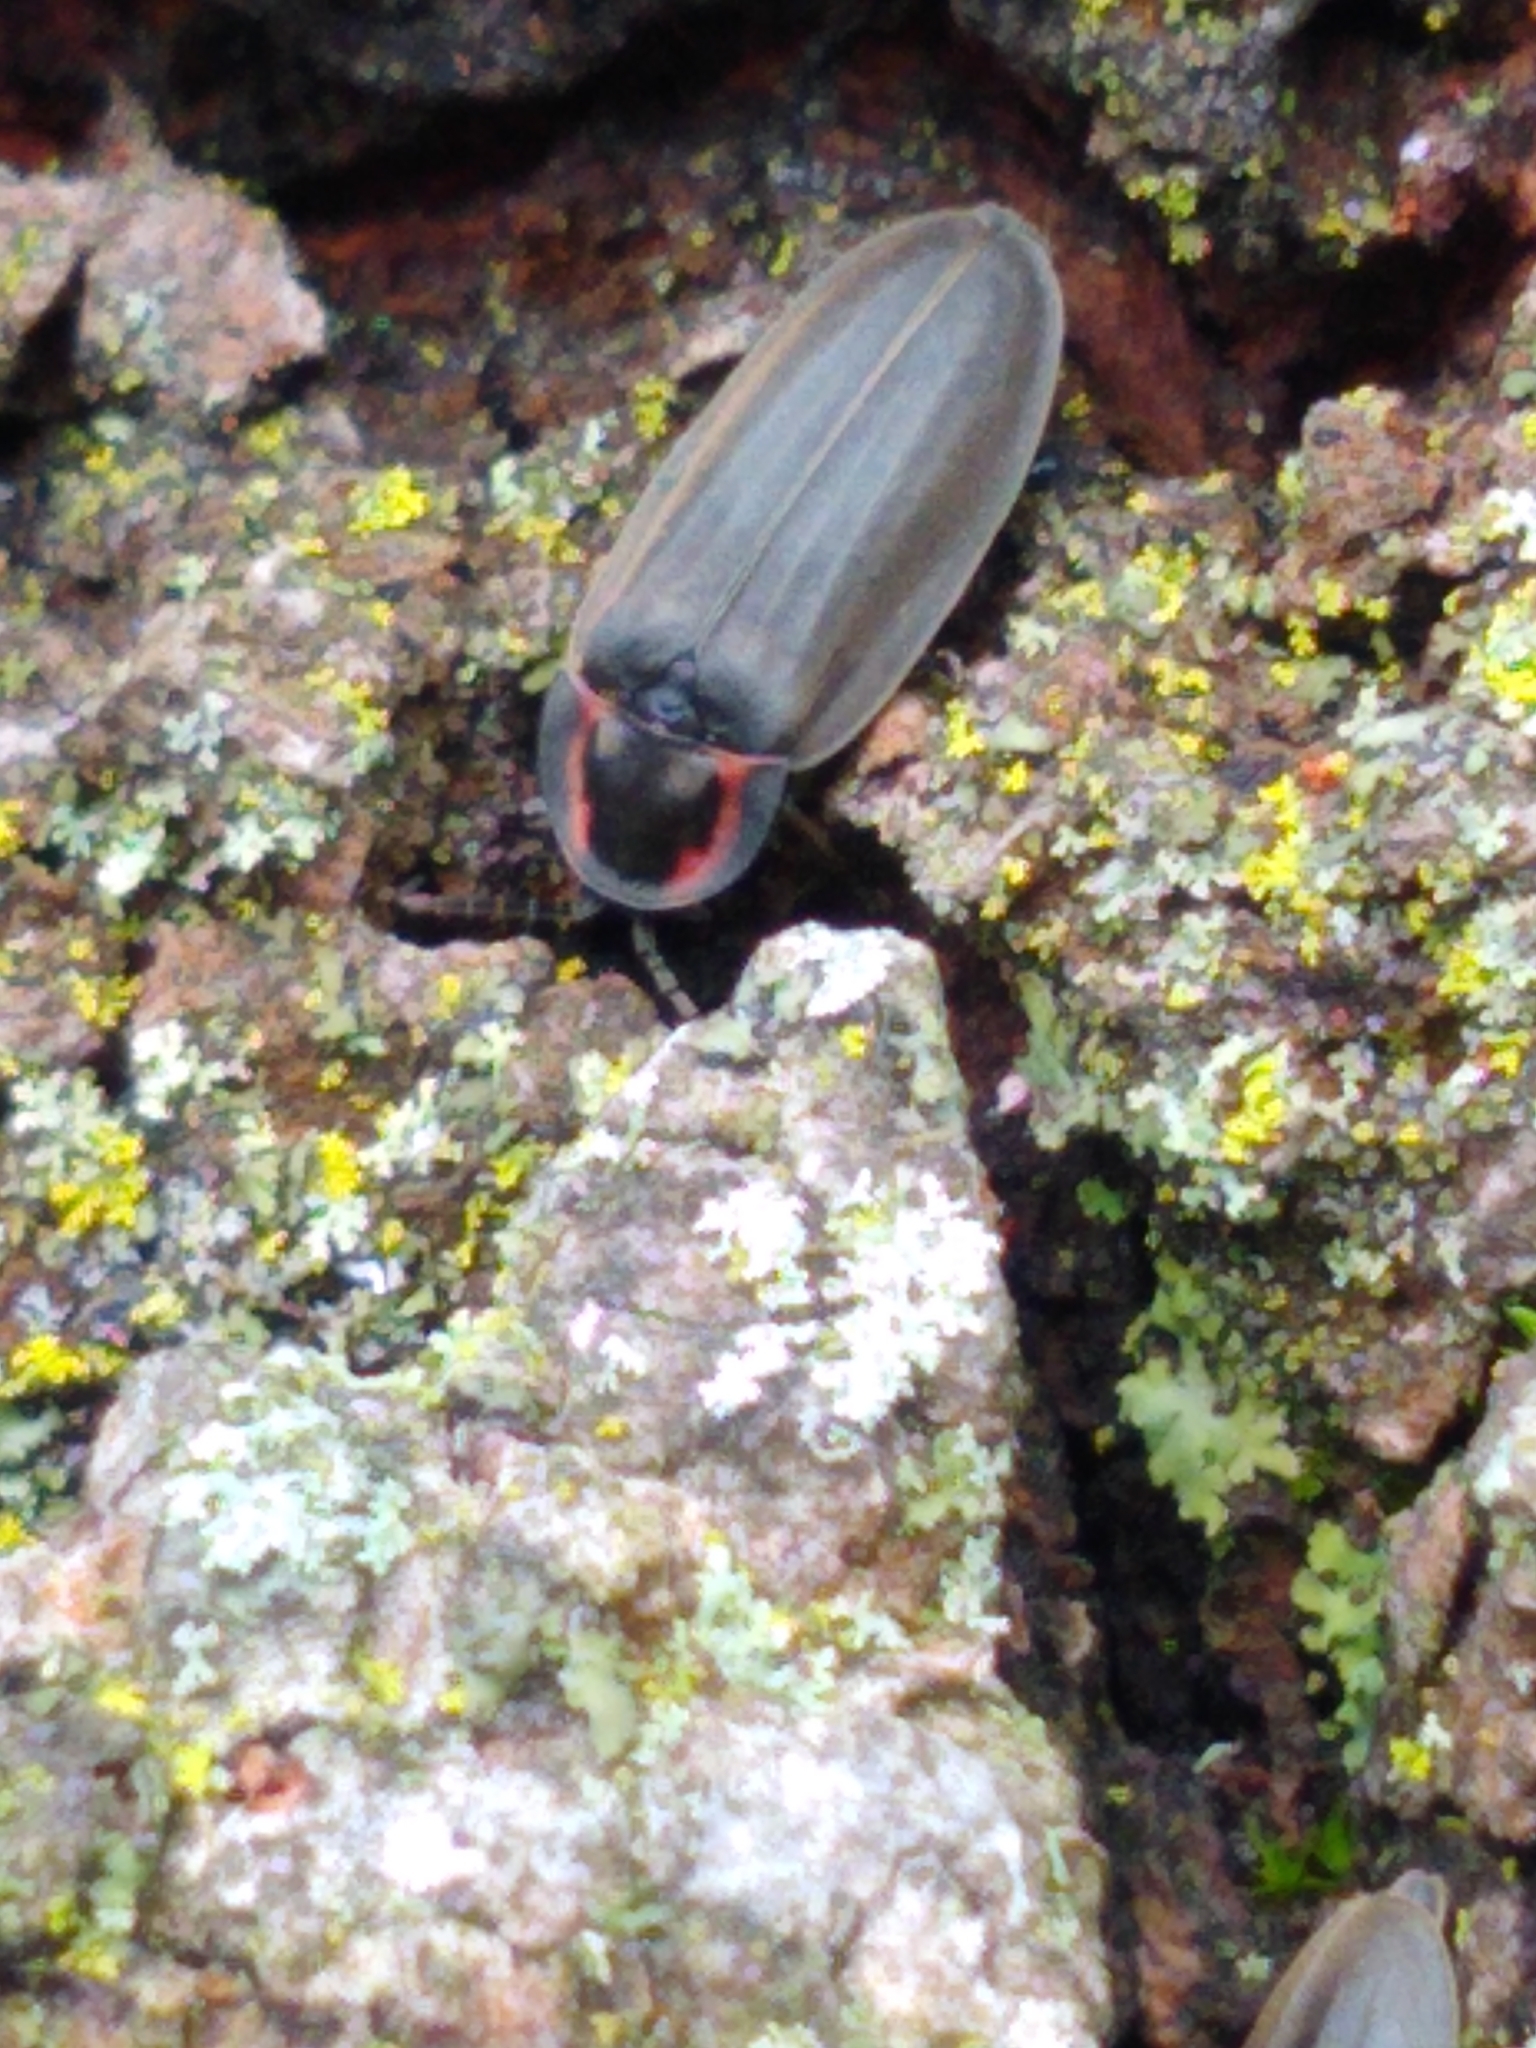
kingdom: Animalia
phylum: Arthropoda
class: Insecta
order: Coleoptera
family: Lampyridae
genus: Photinus
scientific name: Photinus corrusca
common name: Winter firefly
